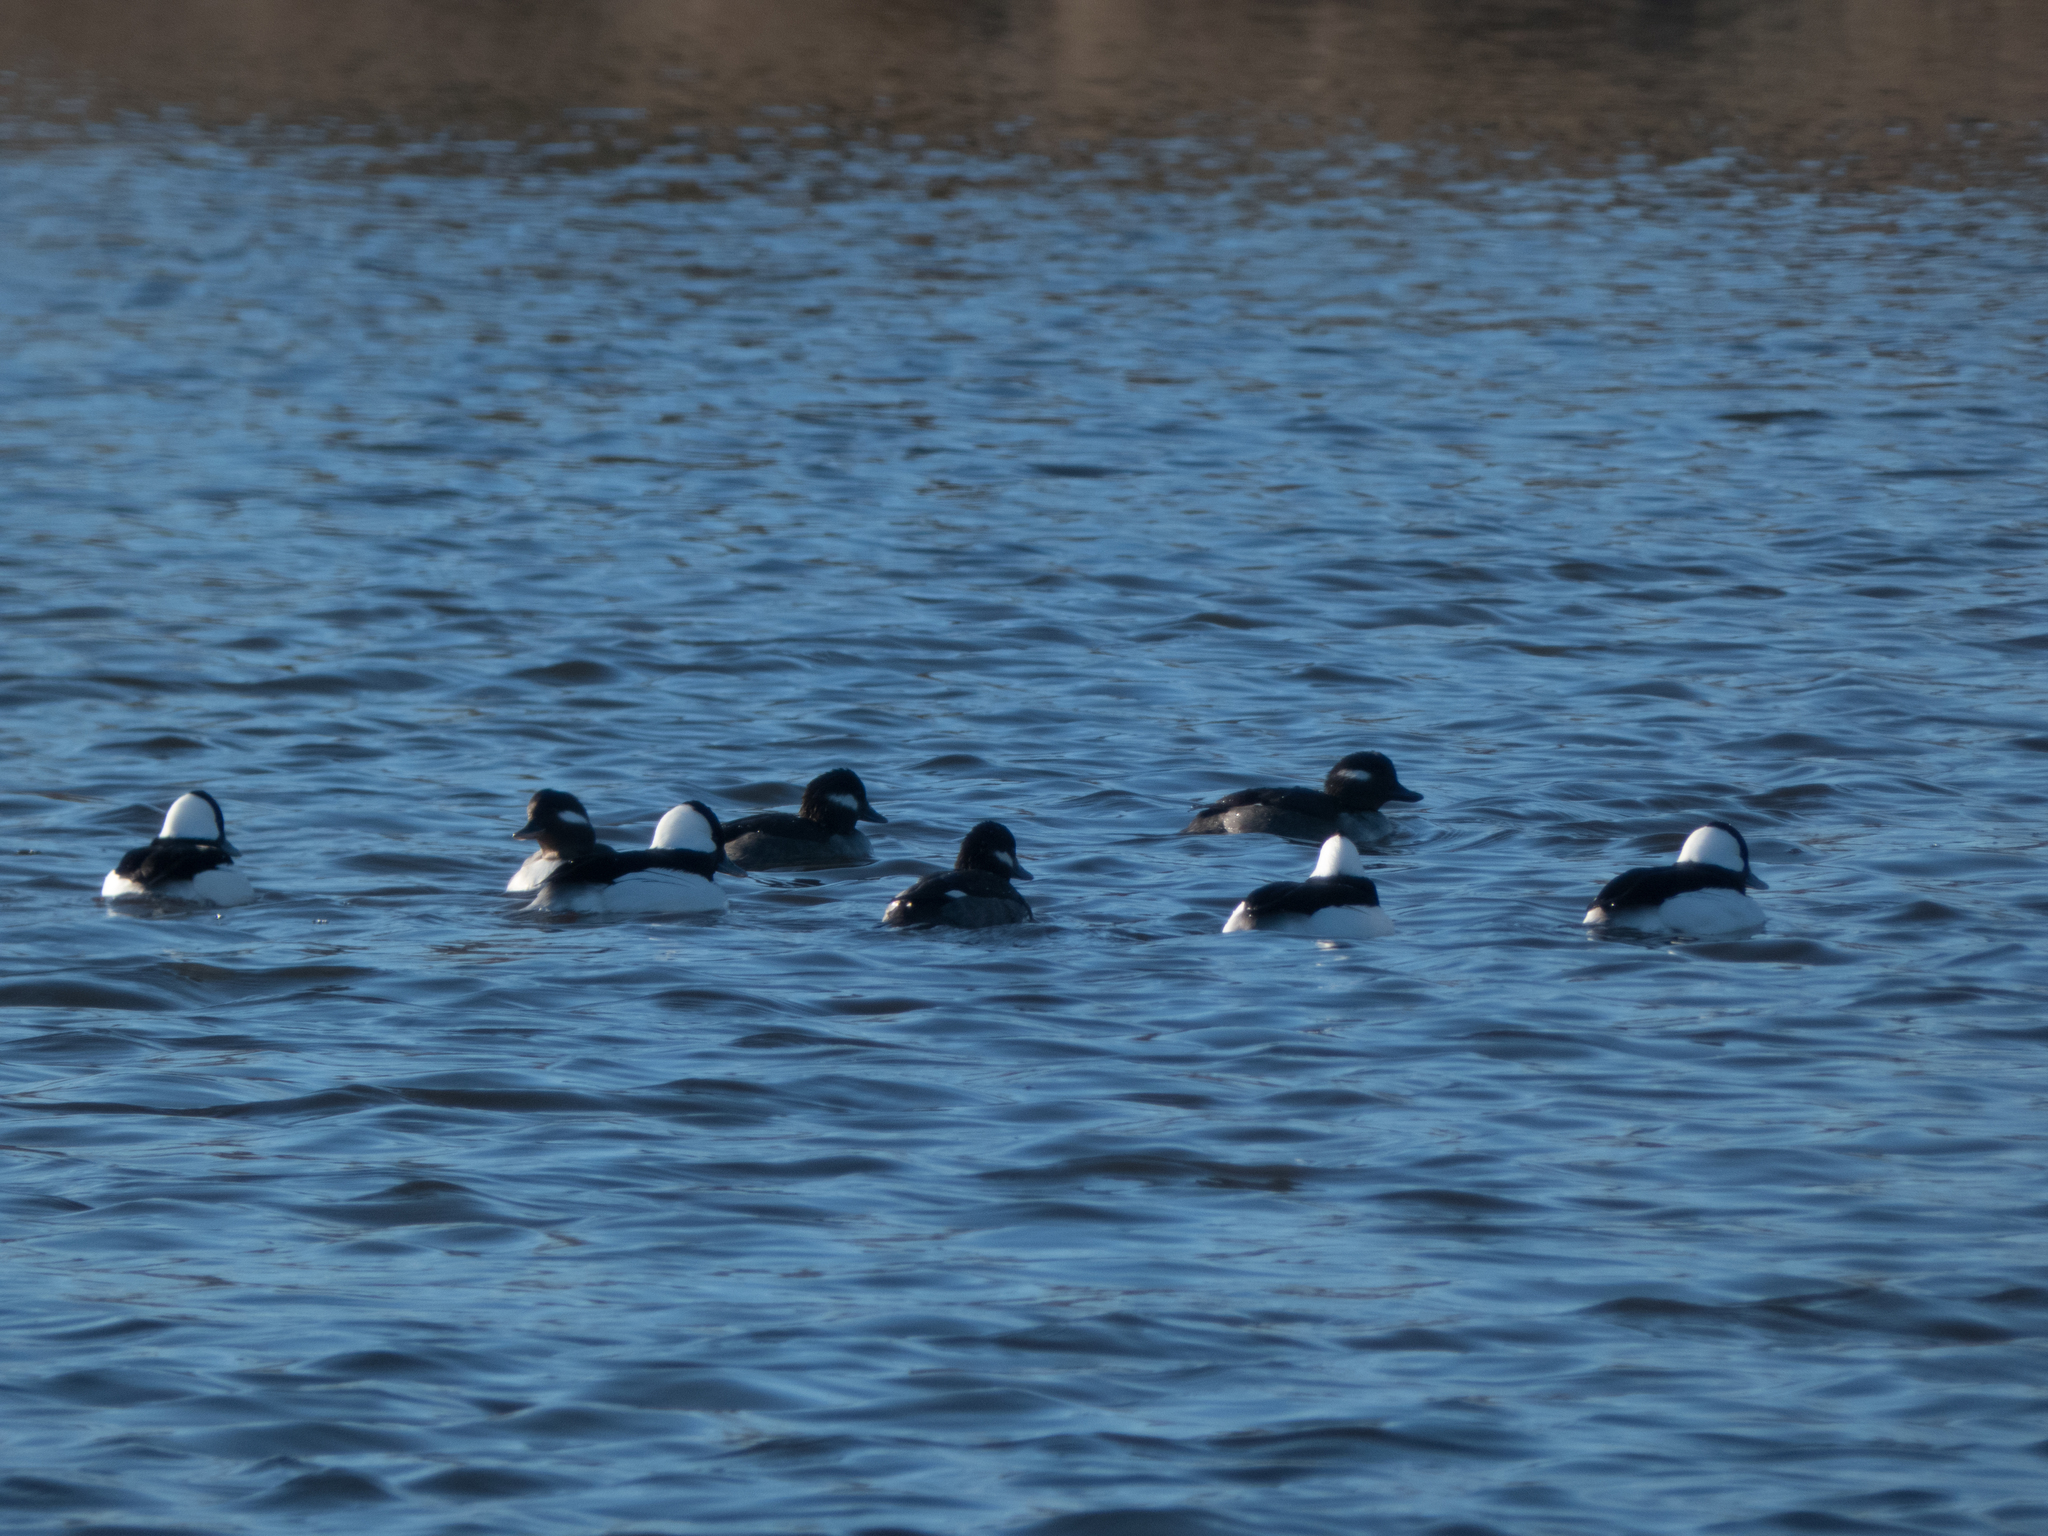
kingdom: Animalia
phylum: Chordata
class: Aves
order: Anseriformes
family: Anatidae
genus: Bucephala
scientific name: Bucephala albeola
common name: Bufflehead
